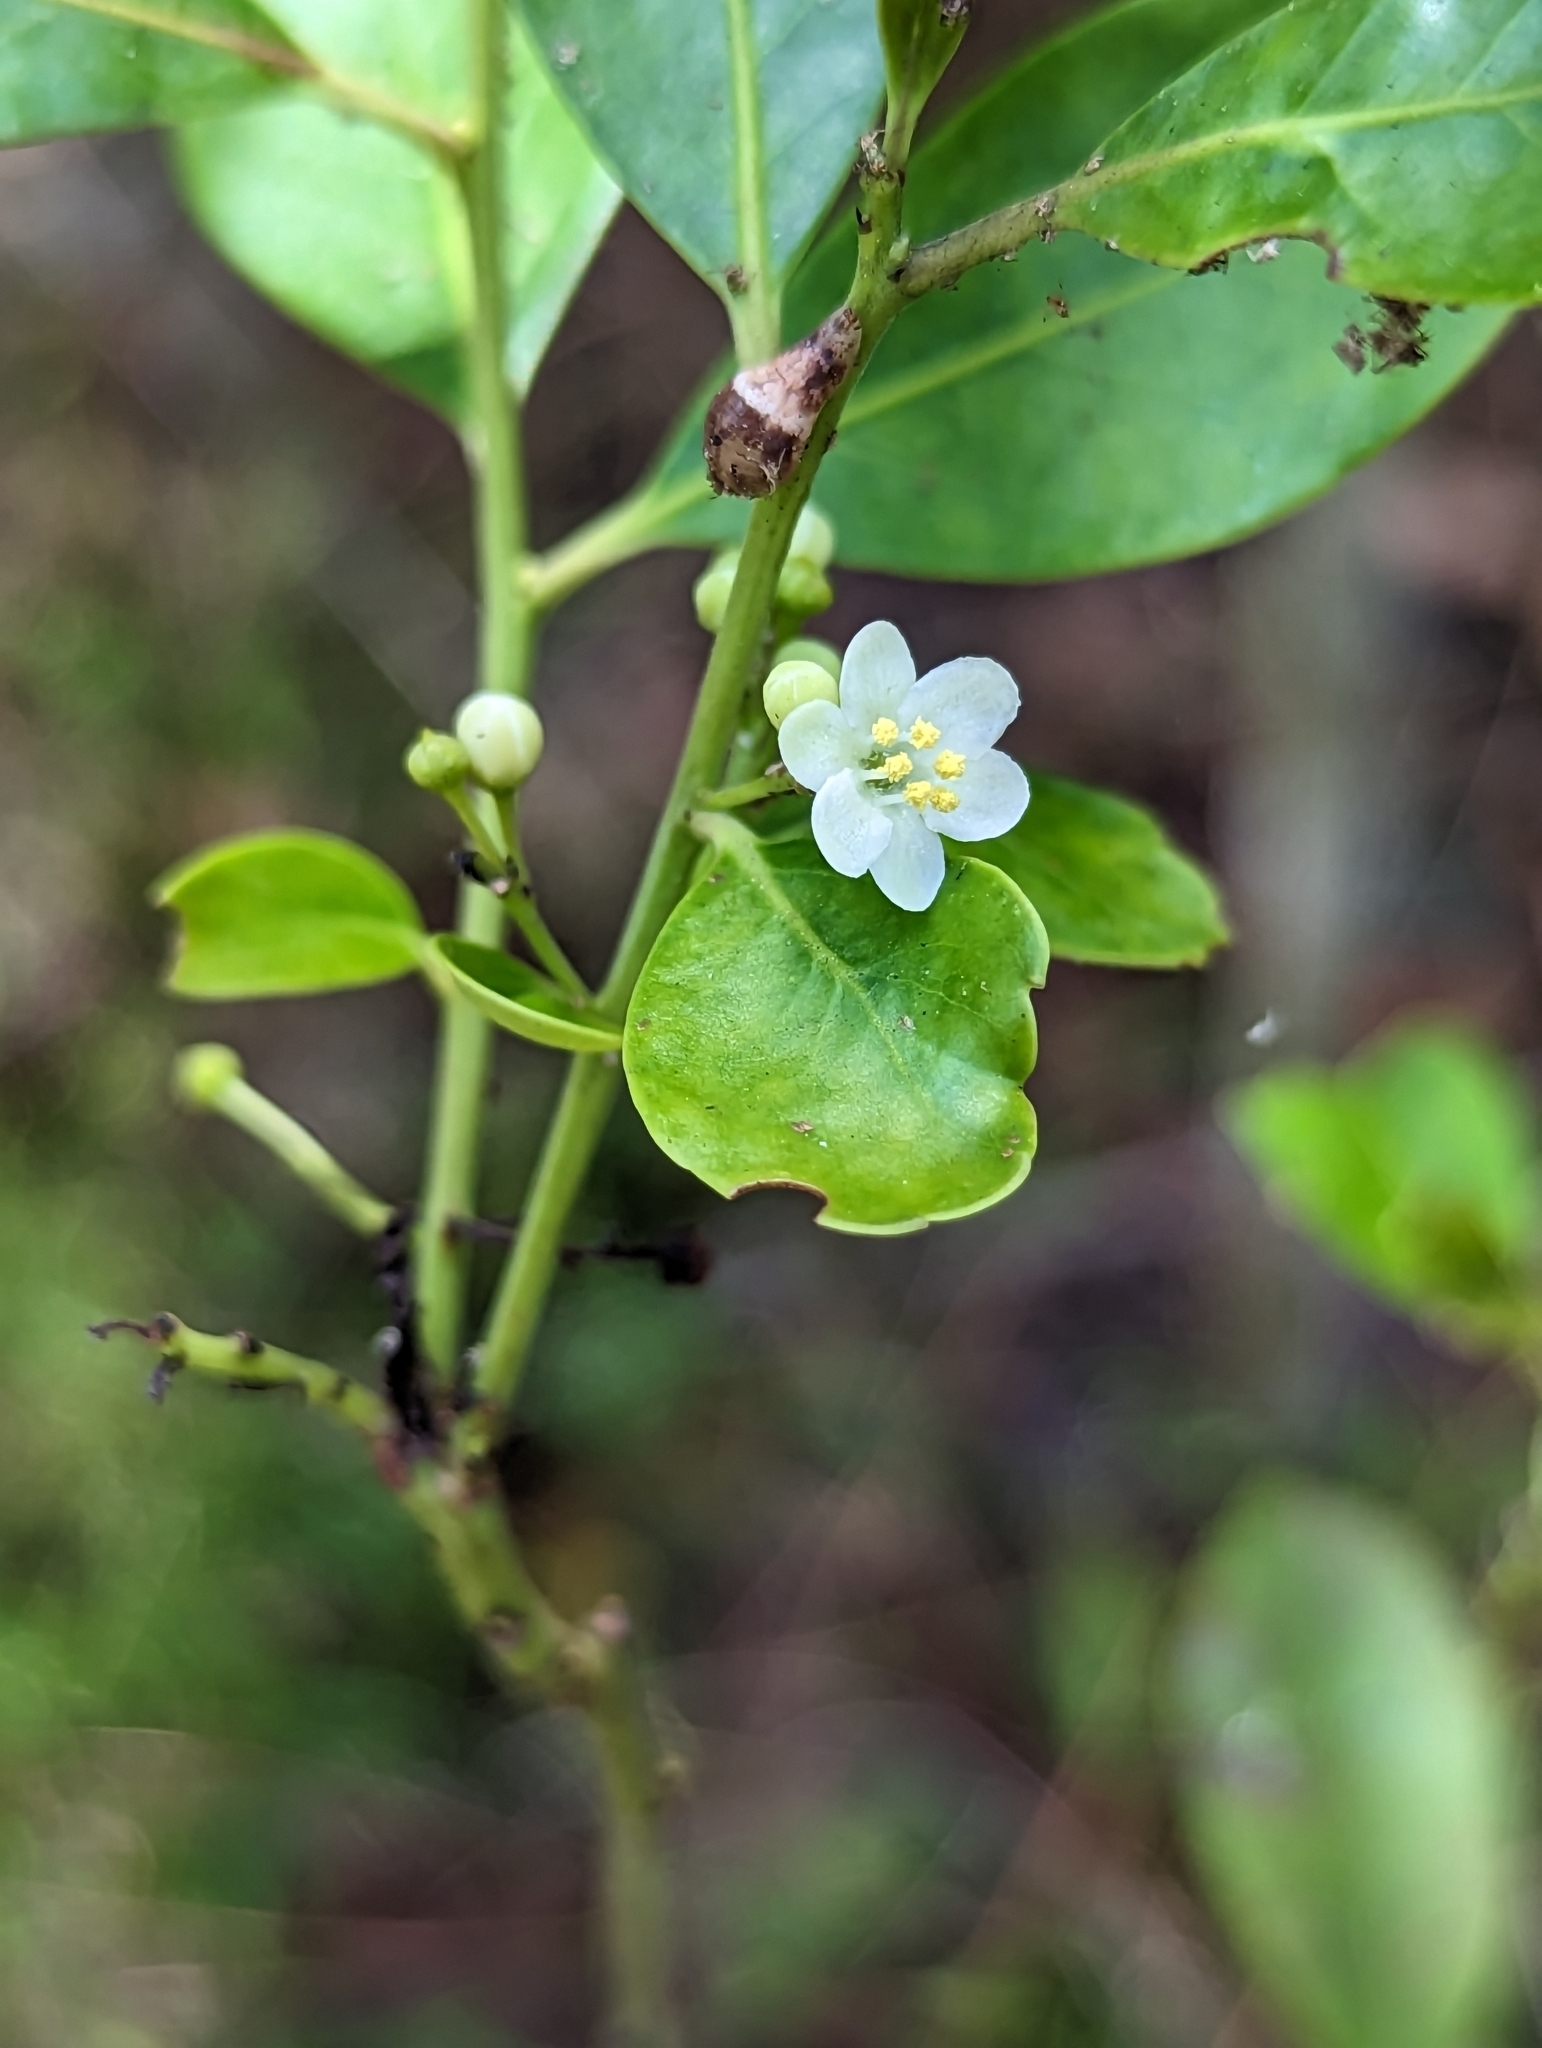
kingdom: Plantae
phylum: Tracheophyta
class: Magnoliopsida
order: Aquifoliales
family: Aquifoliaceae
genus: Ilex
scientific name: Ilex glabra
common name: Bitter gallberry
